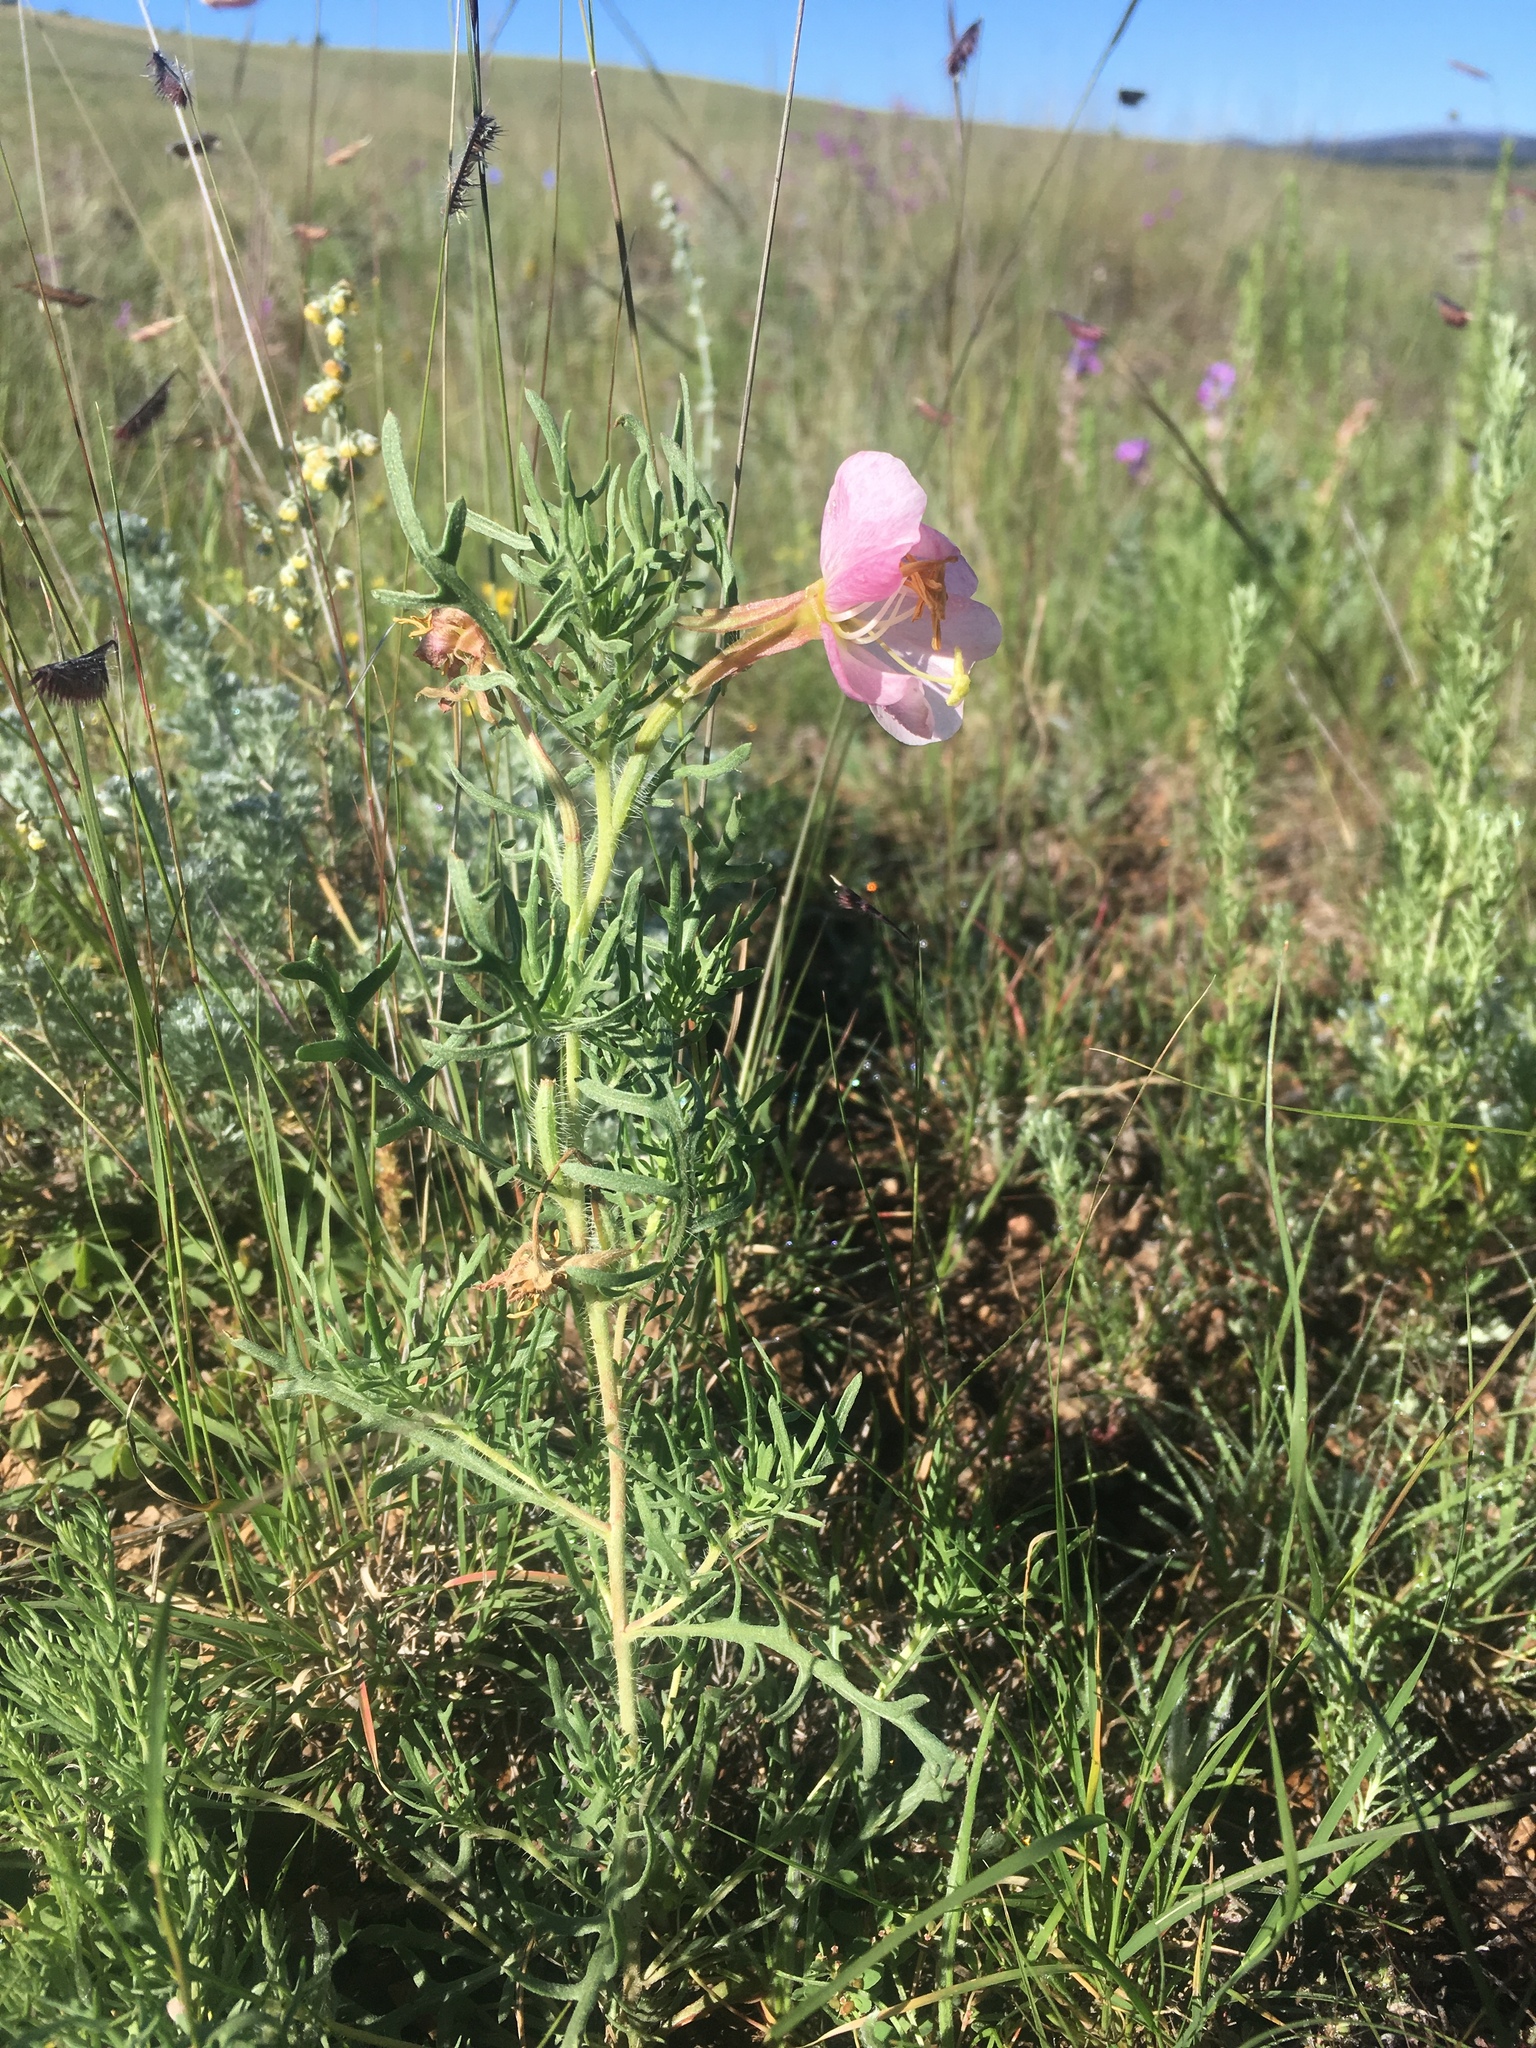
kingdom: Plantae
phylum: Tracheophyta
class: Magnoliopsida
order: Myrtales
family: Onagraceae
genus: Oenothera
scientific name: Oenothera coronopifolia
